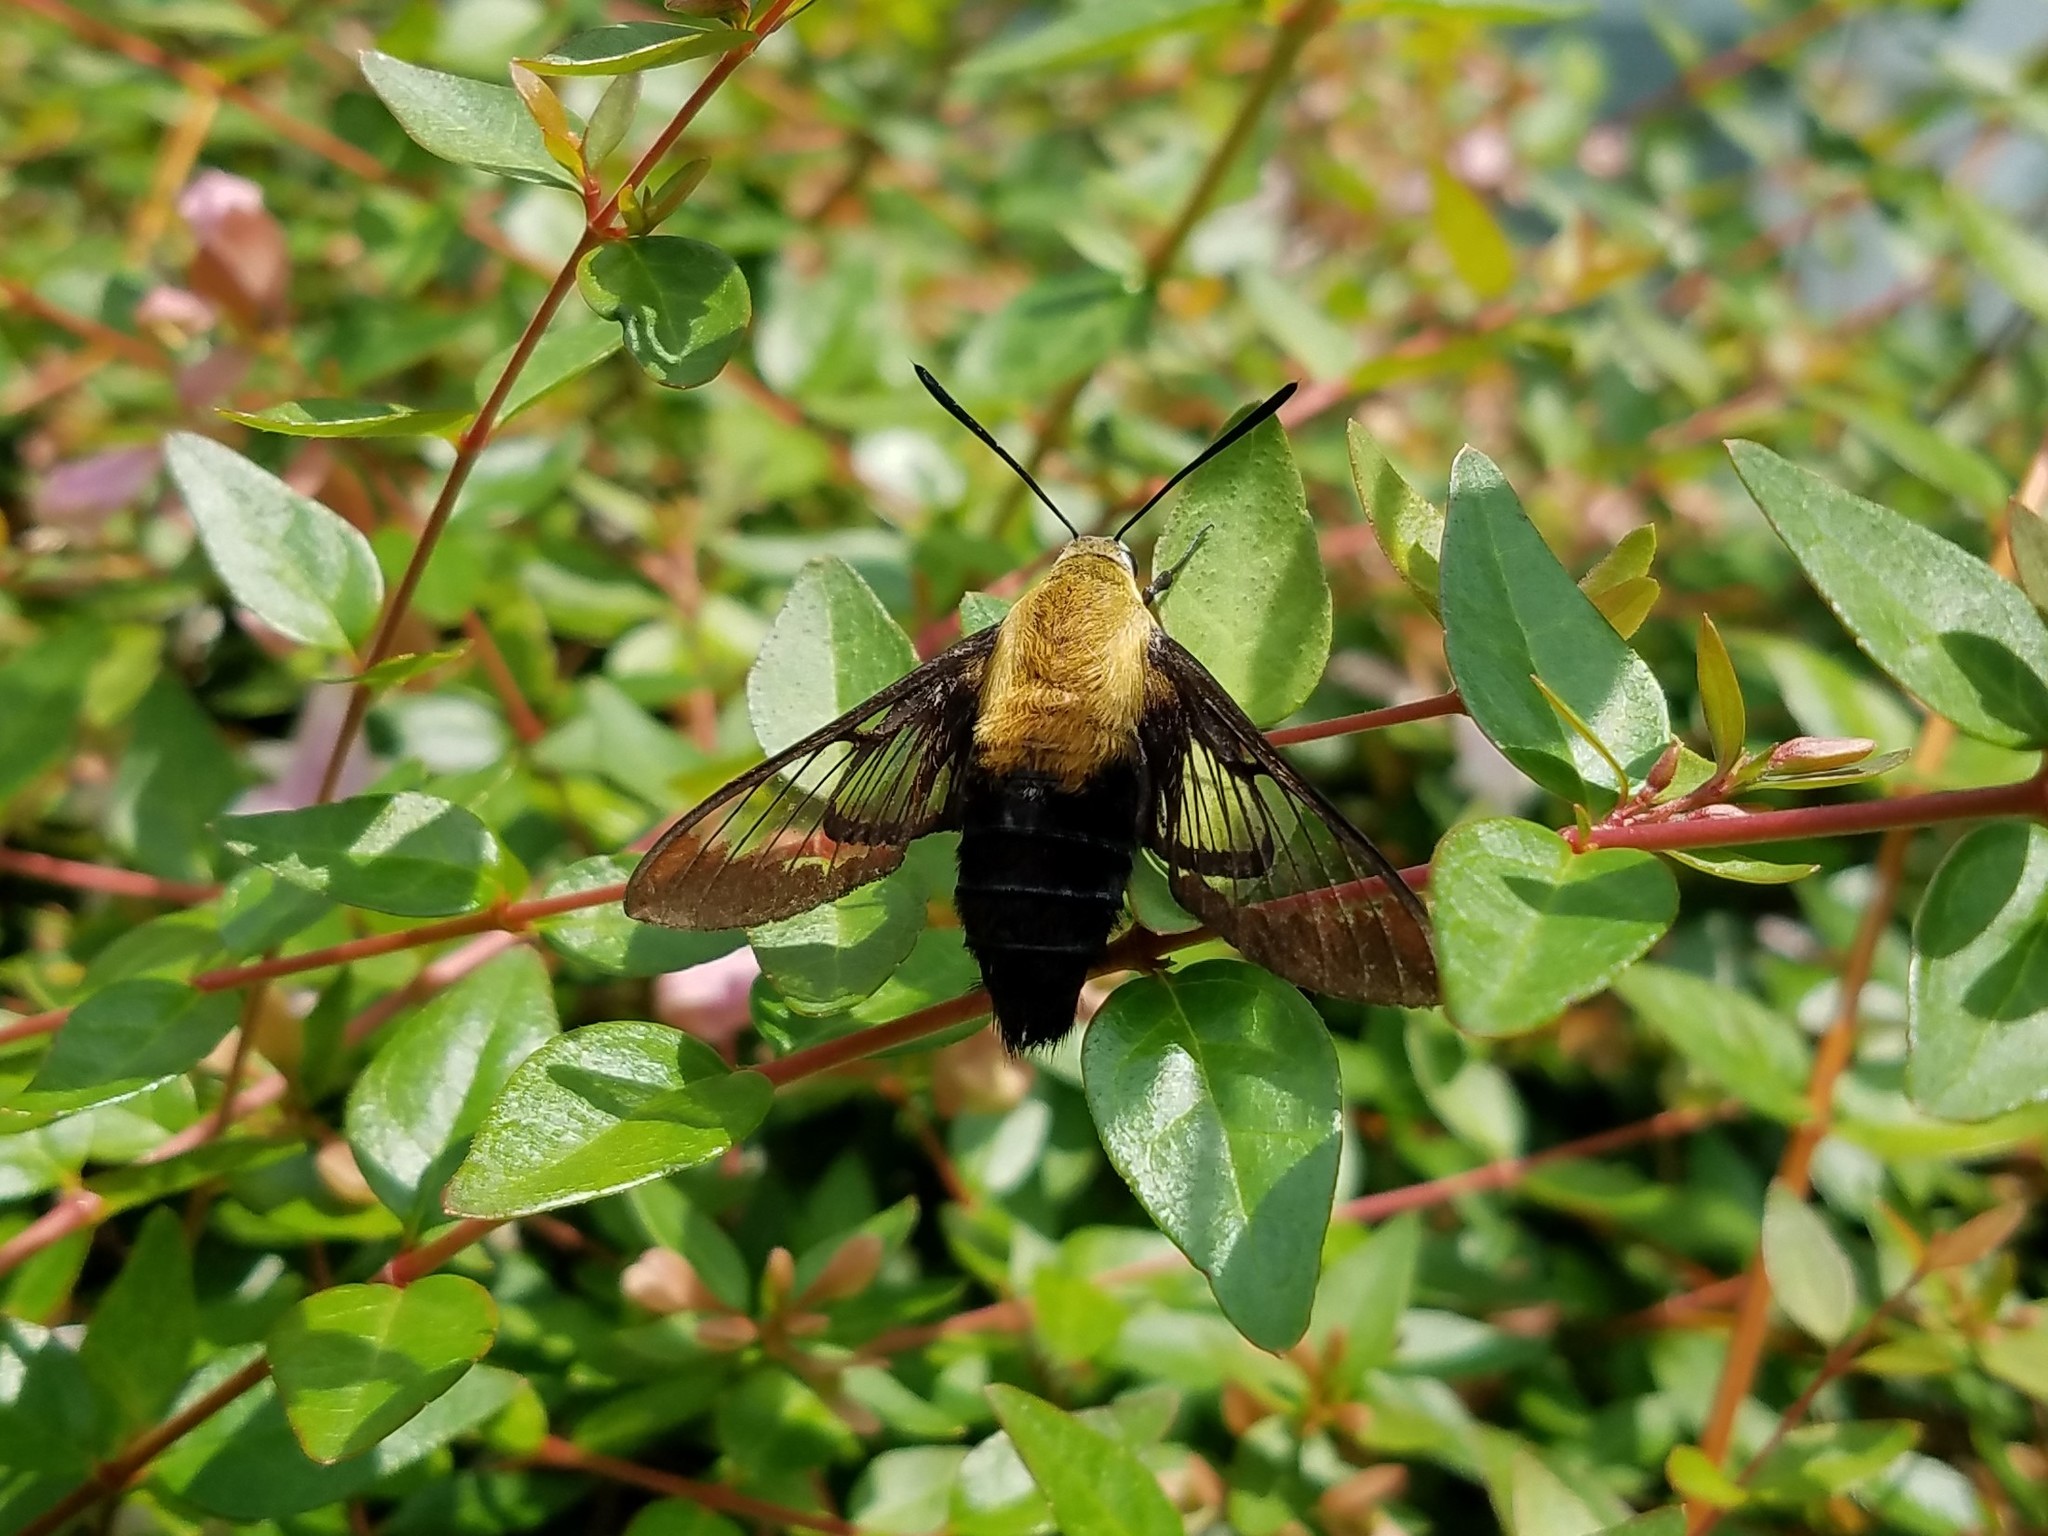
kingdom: Animalia
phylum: Arthropoda
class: Insecta
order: Lepidoptera
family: Sphingidae
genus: Hemaris
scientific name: Hemaris diffinis
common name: Bumblebee moth
